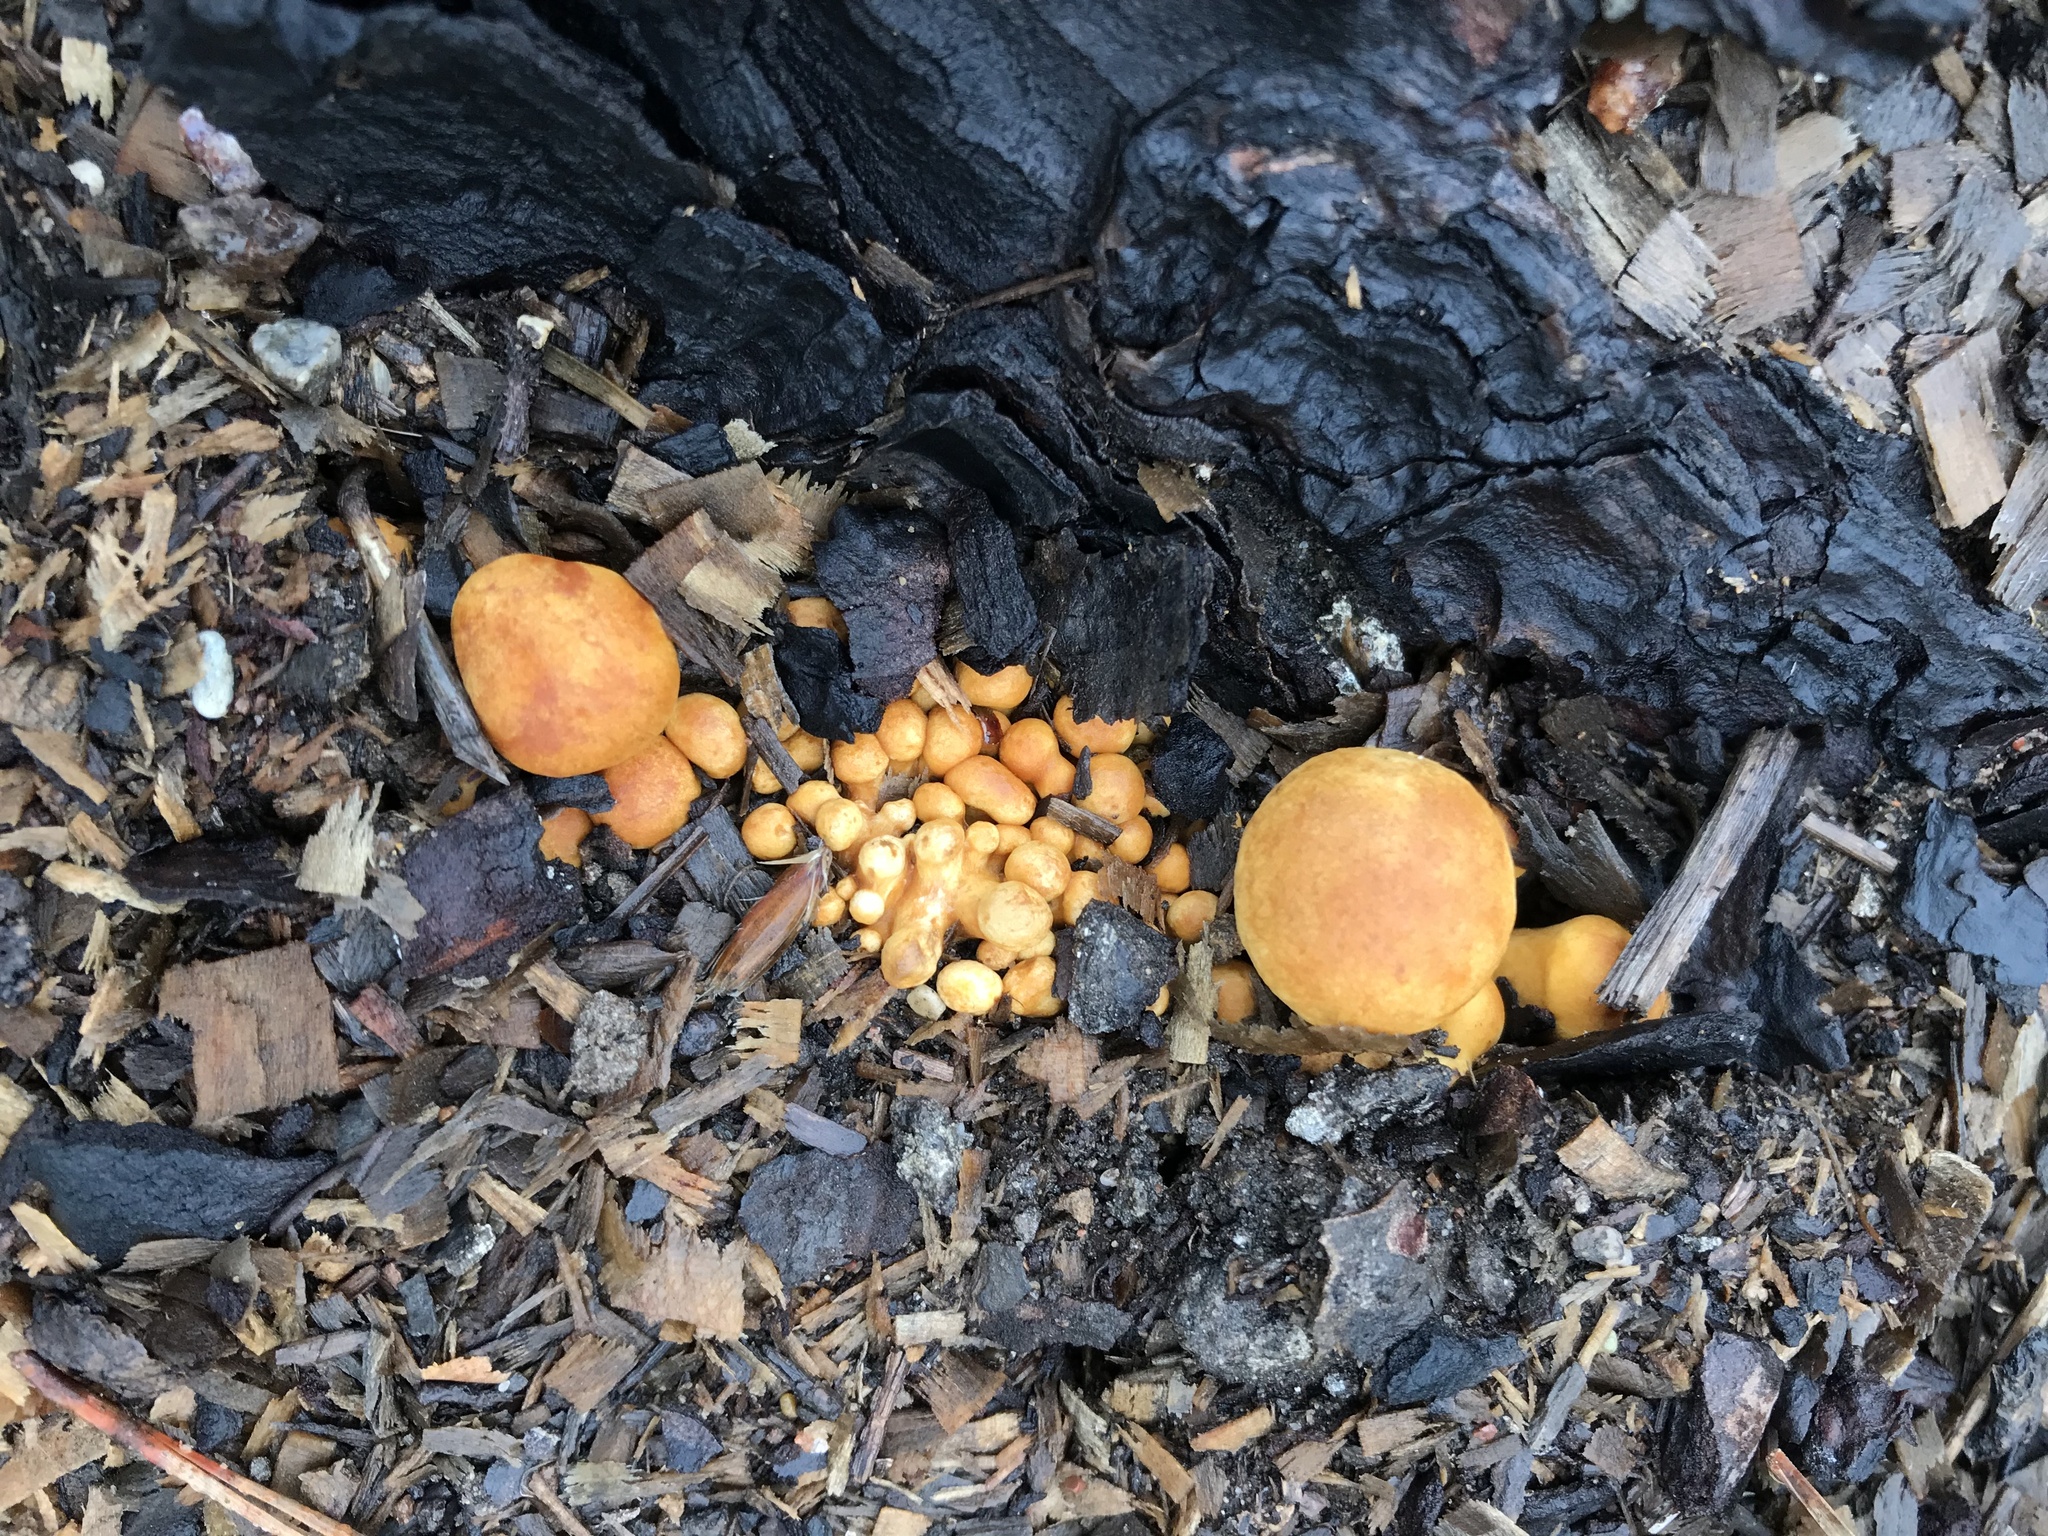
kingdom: Fungi
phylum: Basidiomycota
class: Agaricomycetes
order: Agaricales
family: Hymenogastraceae
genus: Gymnopilus
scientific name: Gymnopilus ventricosus
